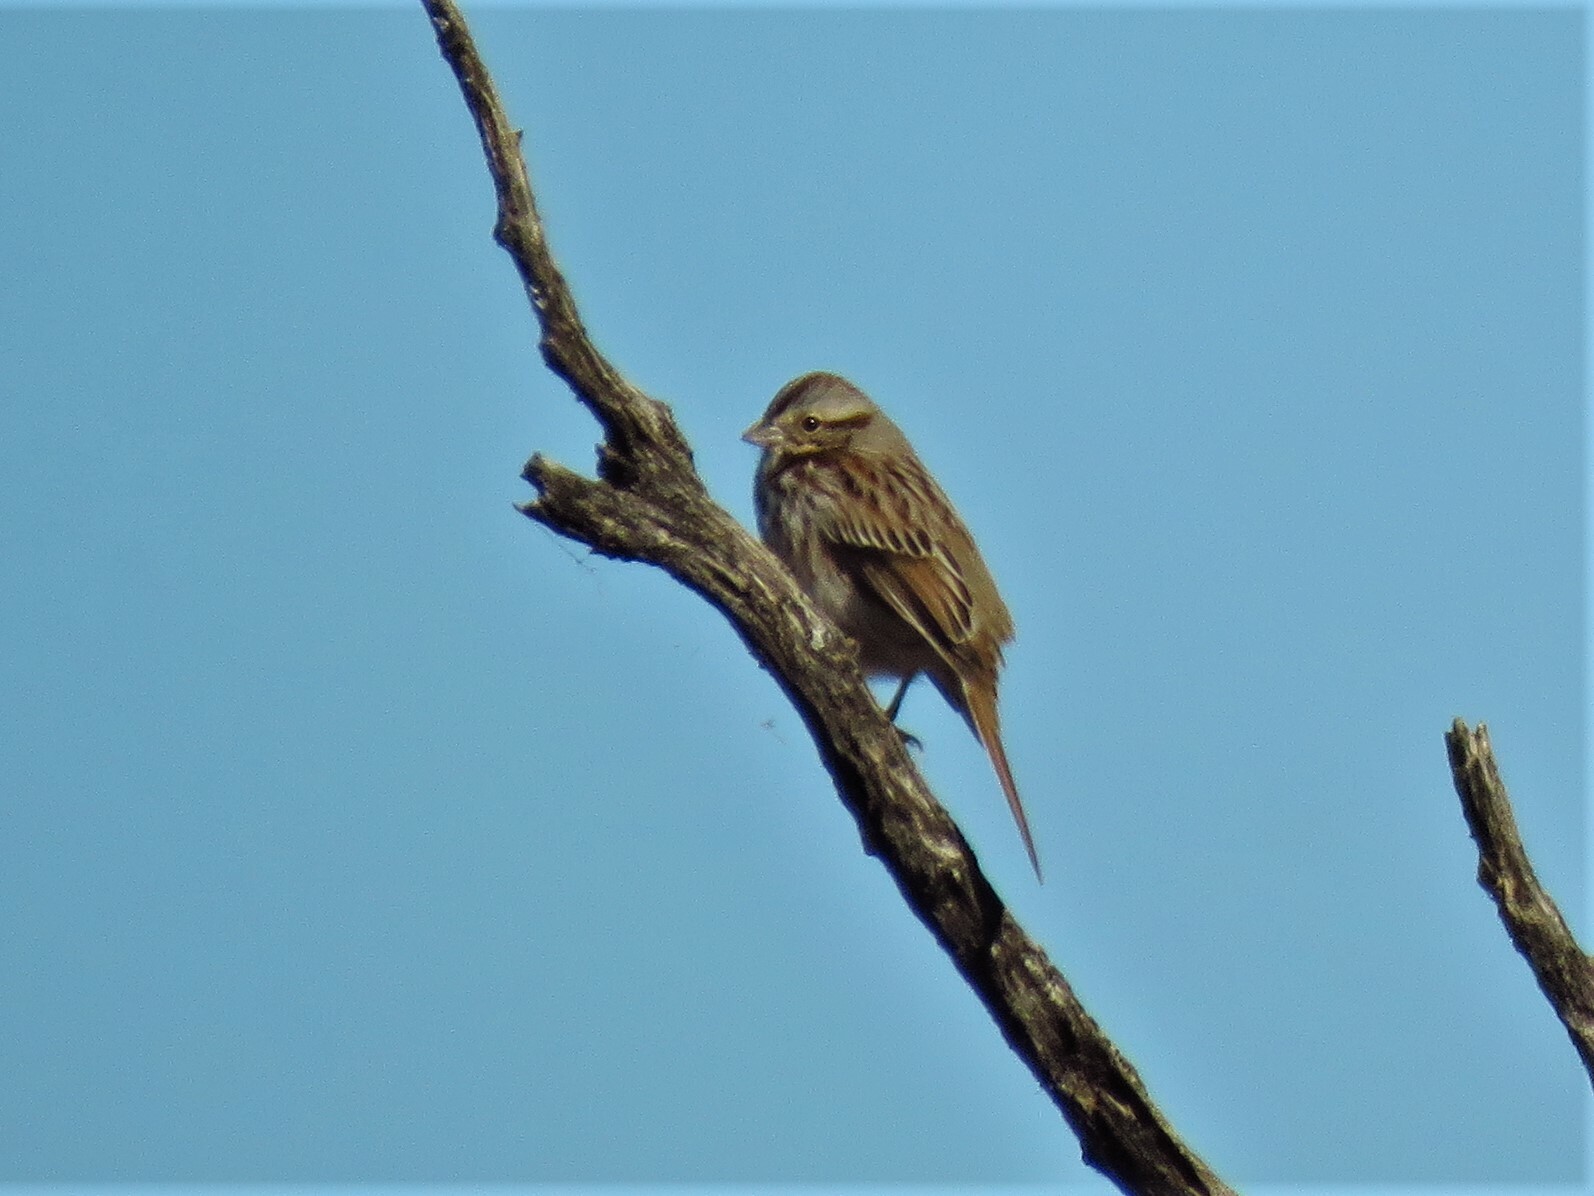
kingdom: Animalia
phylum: Chordata
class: Aves
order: Passeriformes
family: Passerellidae
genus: Melospiza
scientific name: Melospiza melodia
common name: Song sparrow
